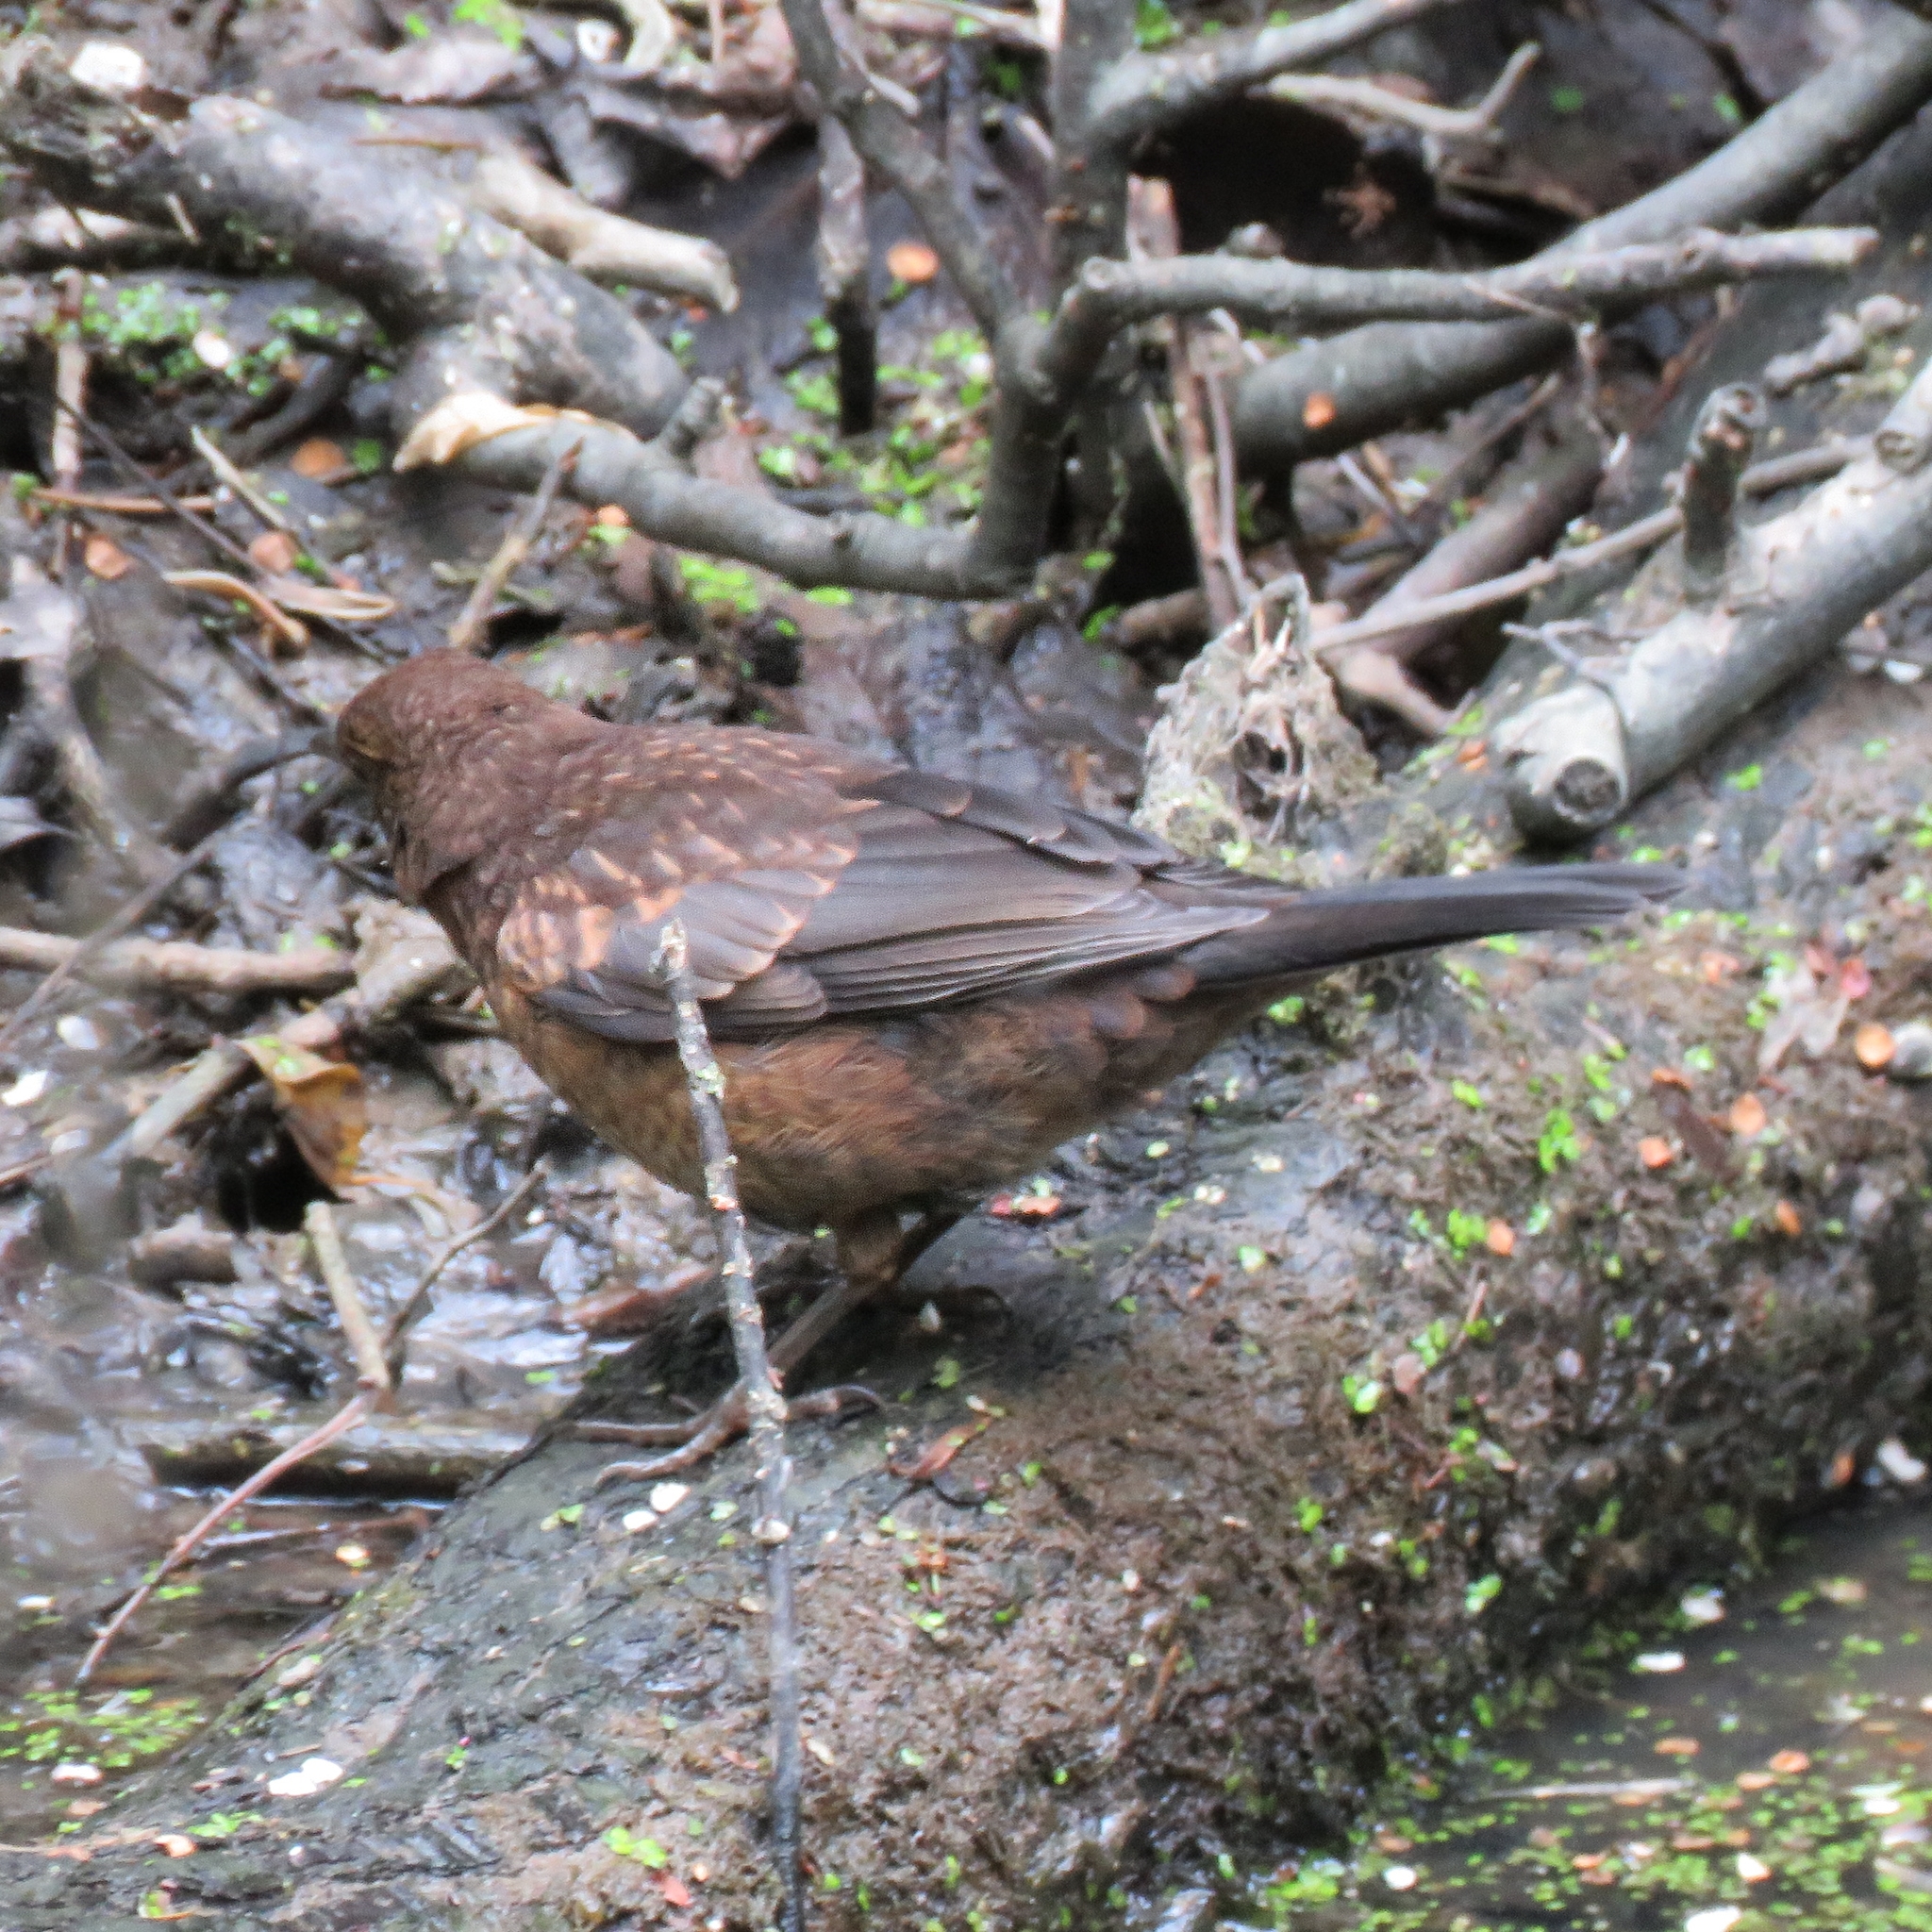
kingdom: Animalia
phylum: Chordata
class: Aves
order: Passeriformes
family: Turdidae
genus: Turdus
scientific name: Turdus merula
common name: Common blackbird
